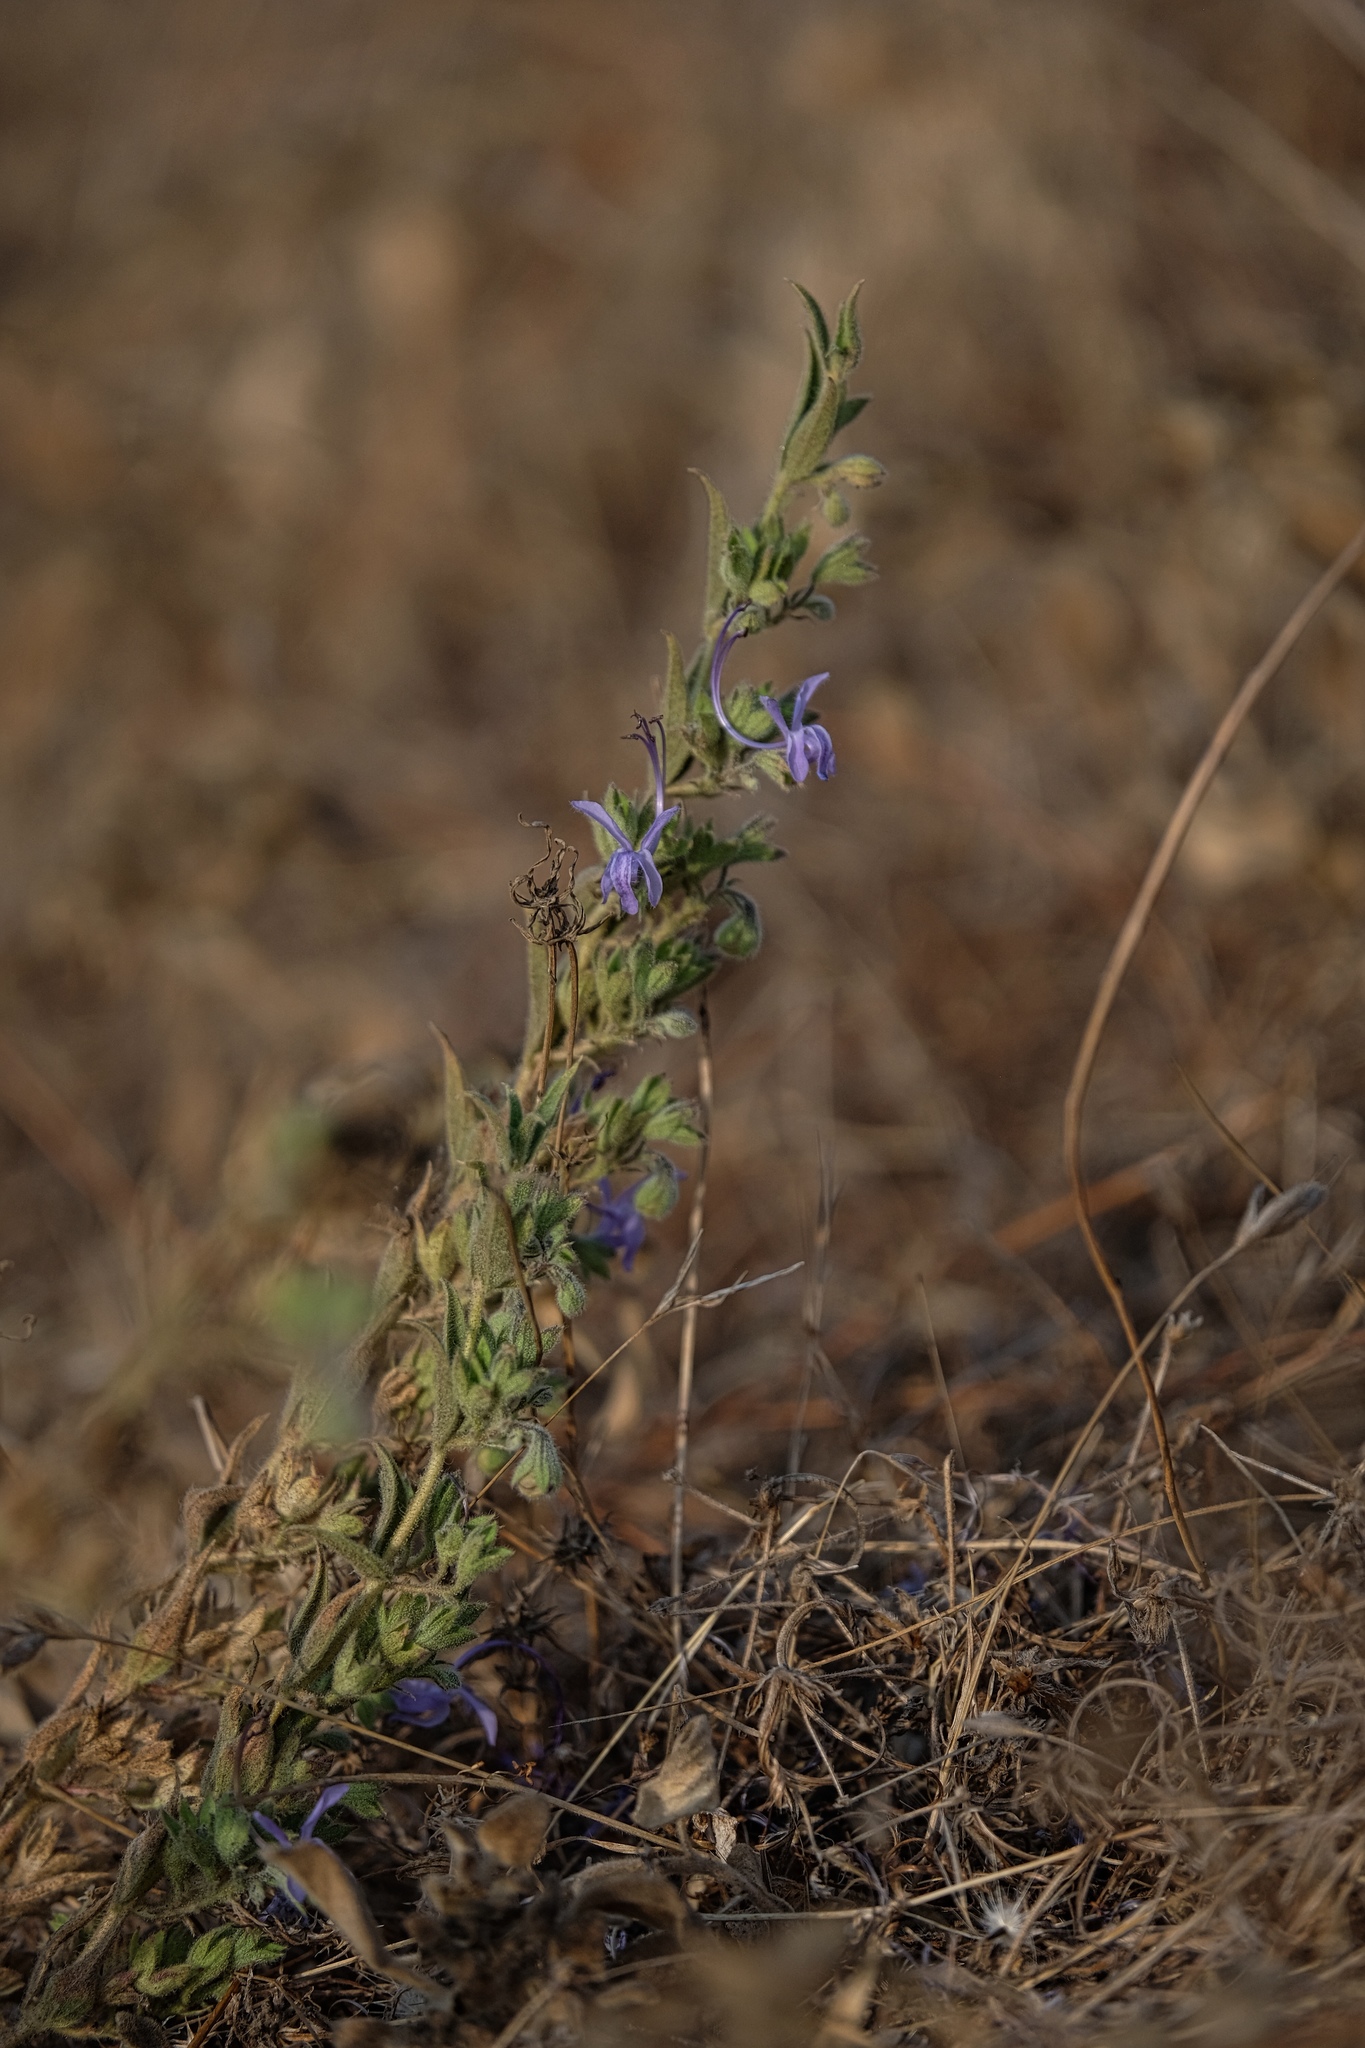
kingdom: Plantae
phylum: Tracheophyta
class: Magnoliopsida
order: Lamiales
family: Lamiaceae
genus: Trichostema
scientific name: Trichostema lanceolatum
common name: Vinegar-weed
